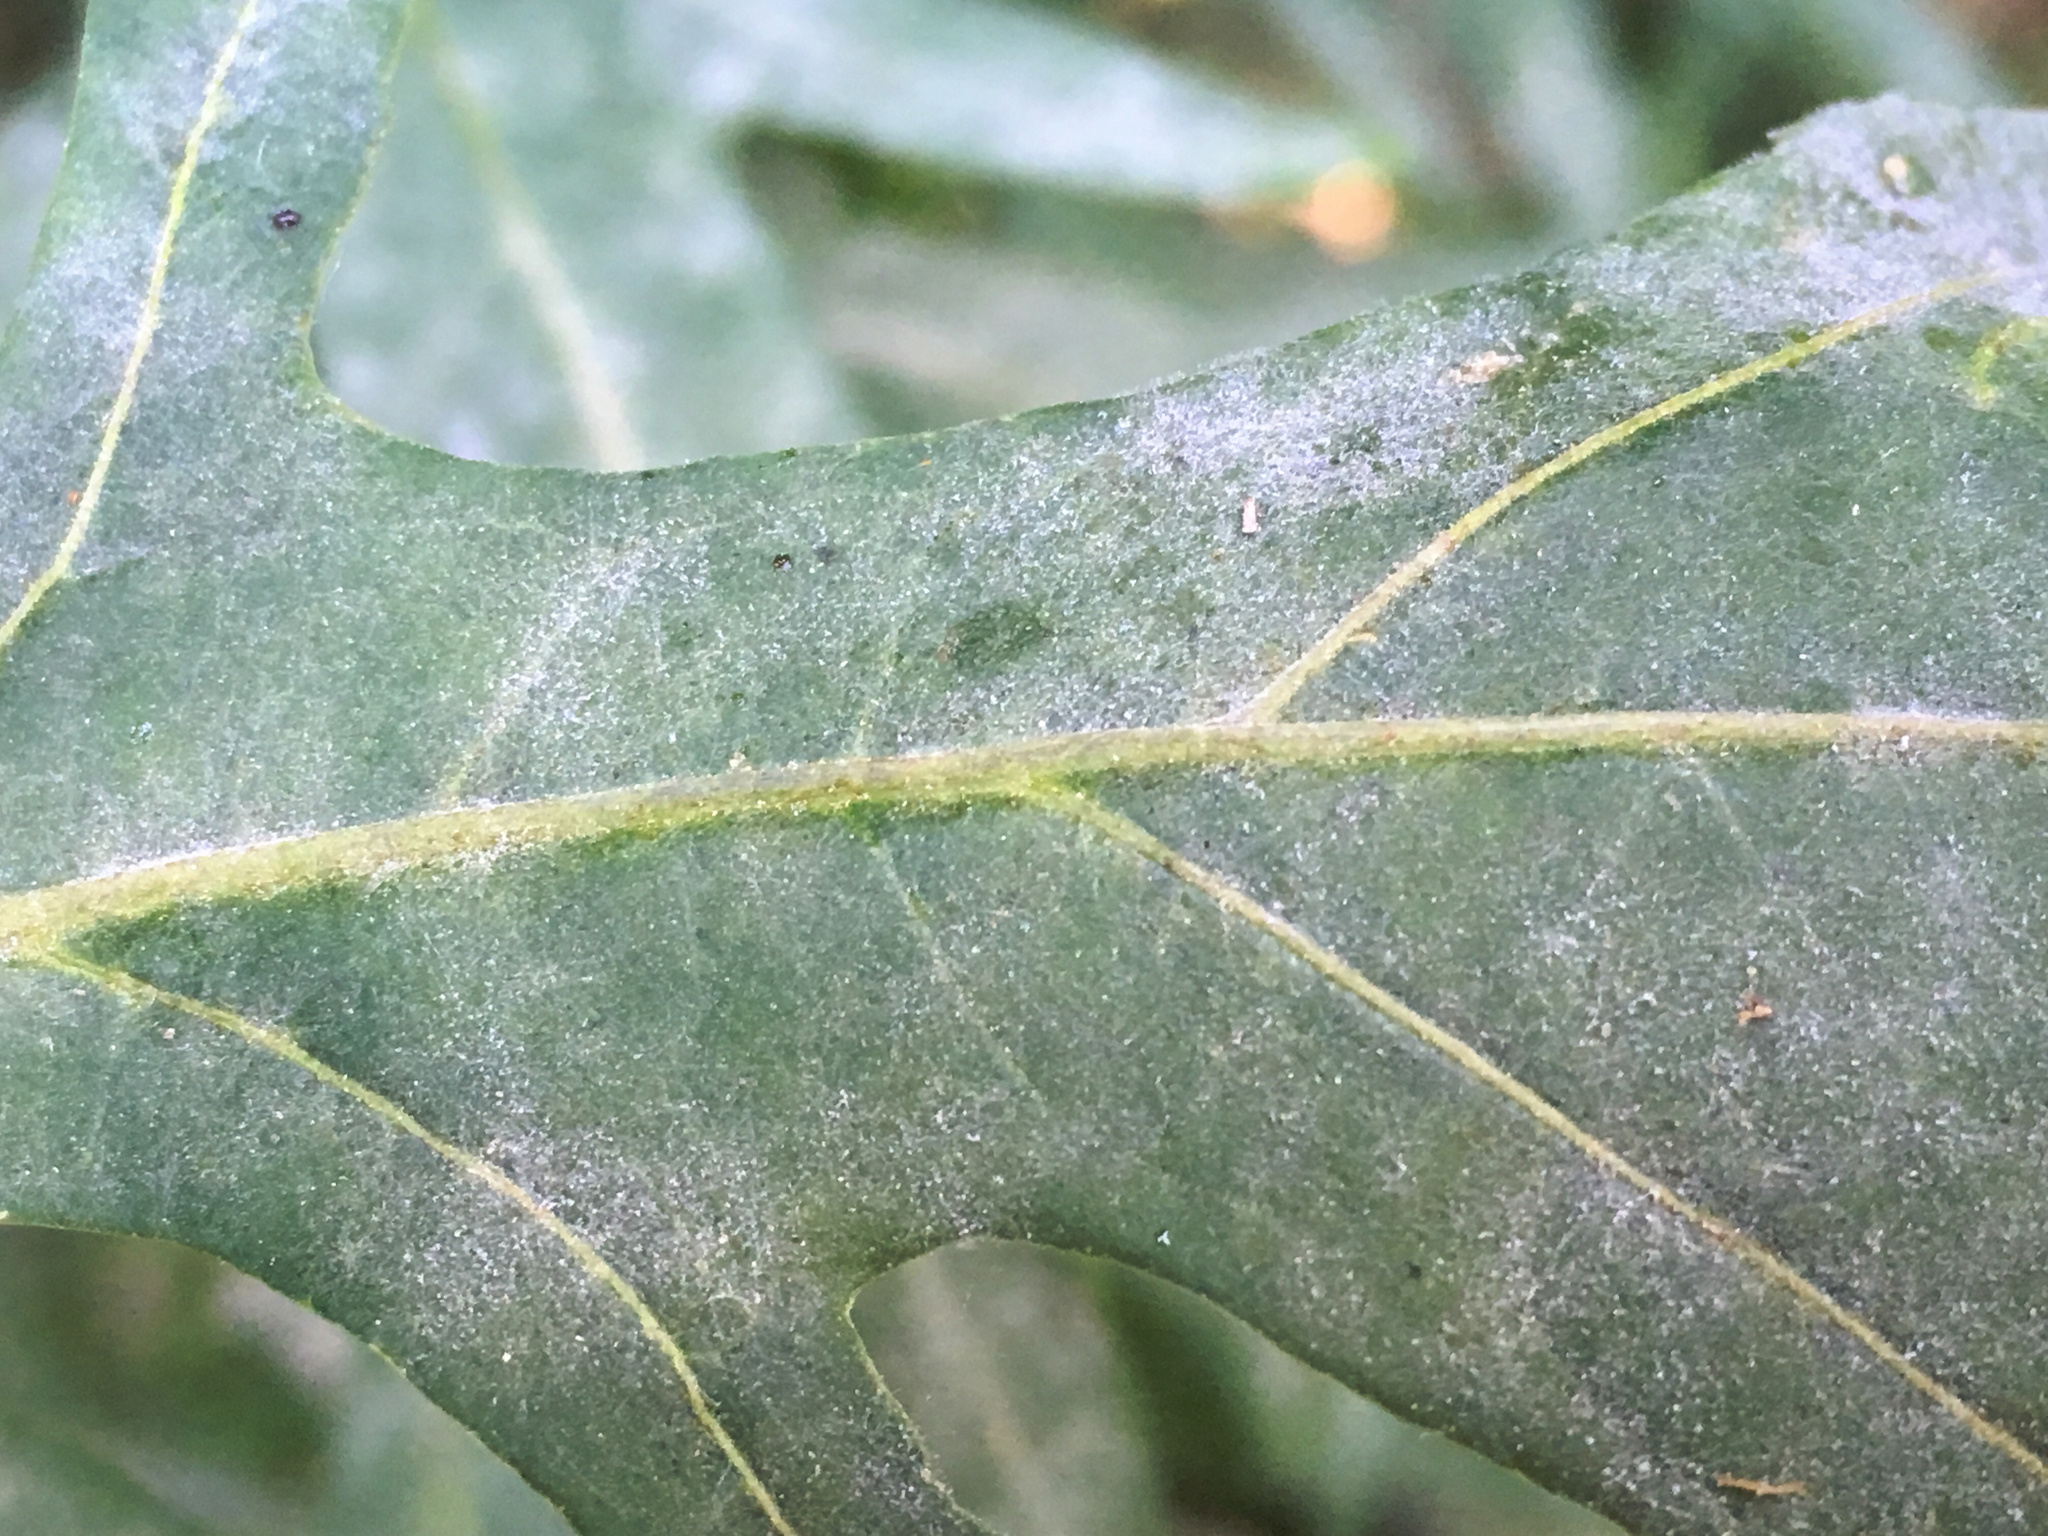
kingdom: Fungi
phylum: Ascomycota
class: Leotiomycetes
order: Helotiales
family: Erysiphaceae
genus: Golovinomyces
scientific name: Golovinomyces longipes
